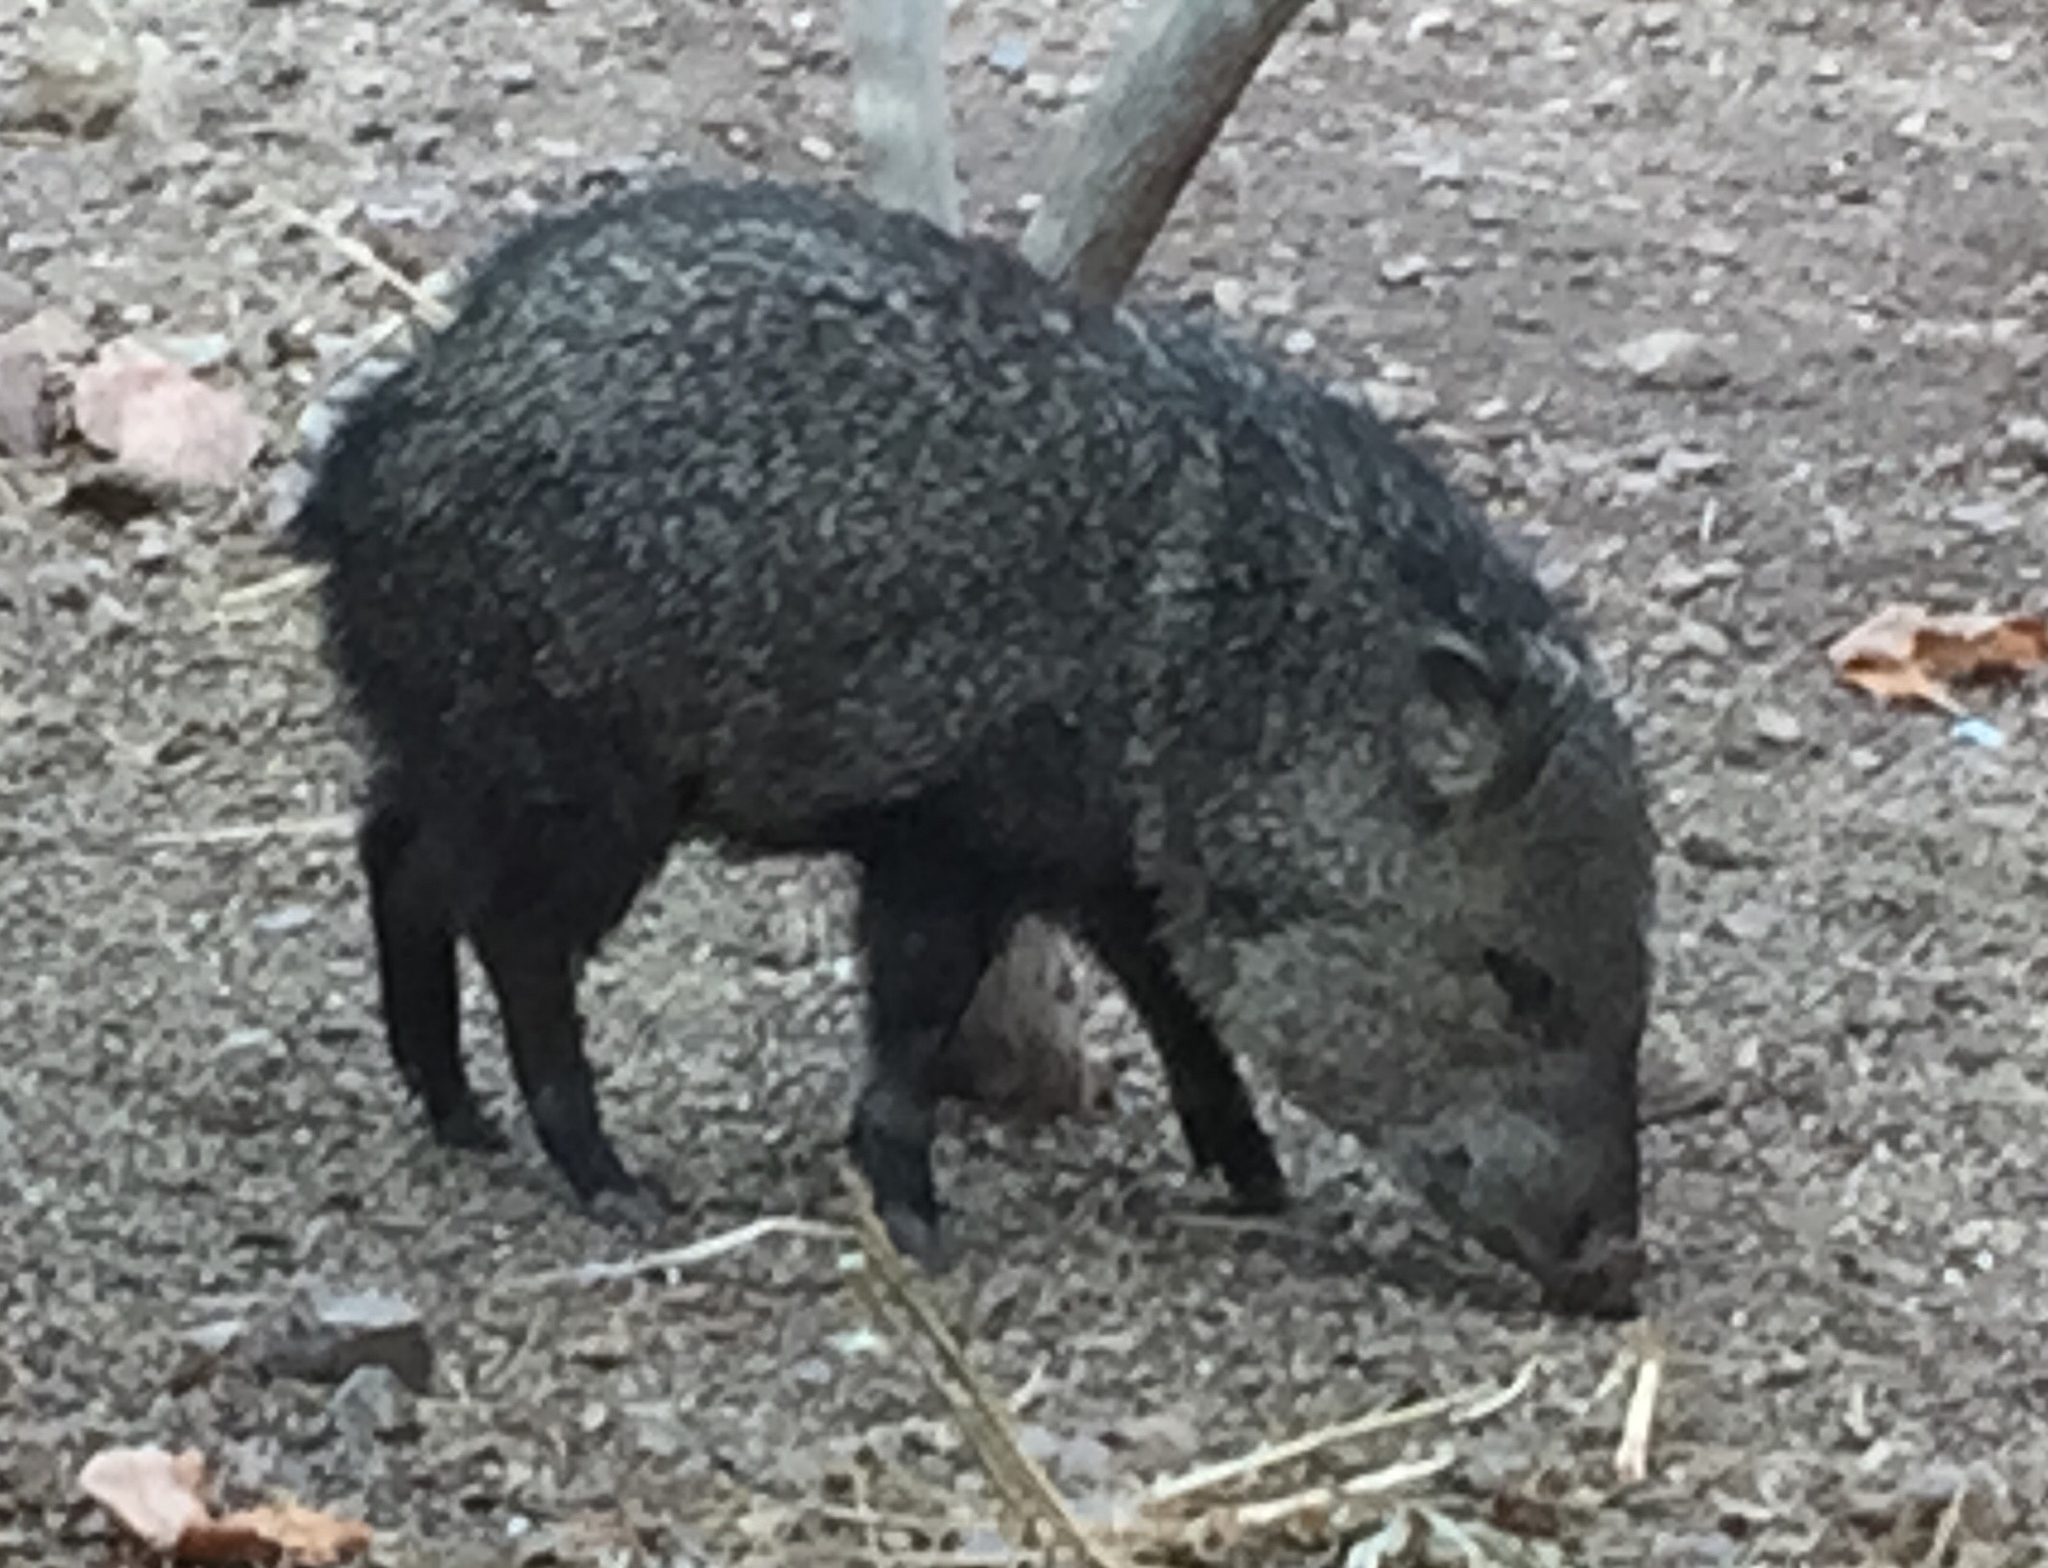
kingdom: Animalia
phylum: Chordata
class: Mammalia
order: Artiodactyla
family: Tayassuidae
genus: Pecari
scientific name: Pecari tajacu
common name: Collared peccary
